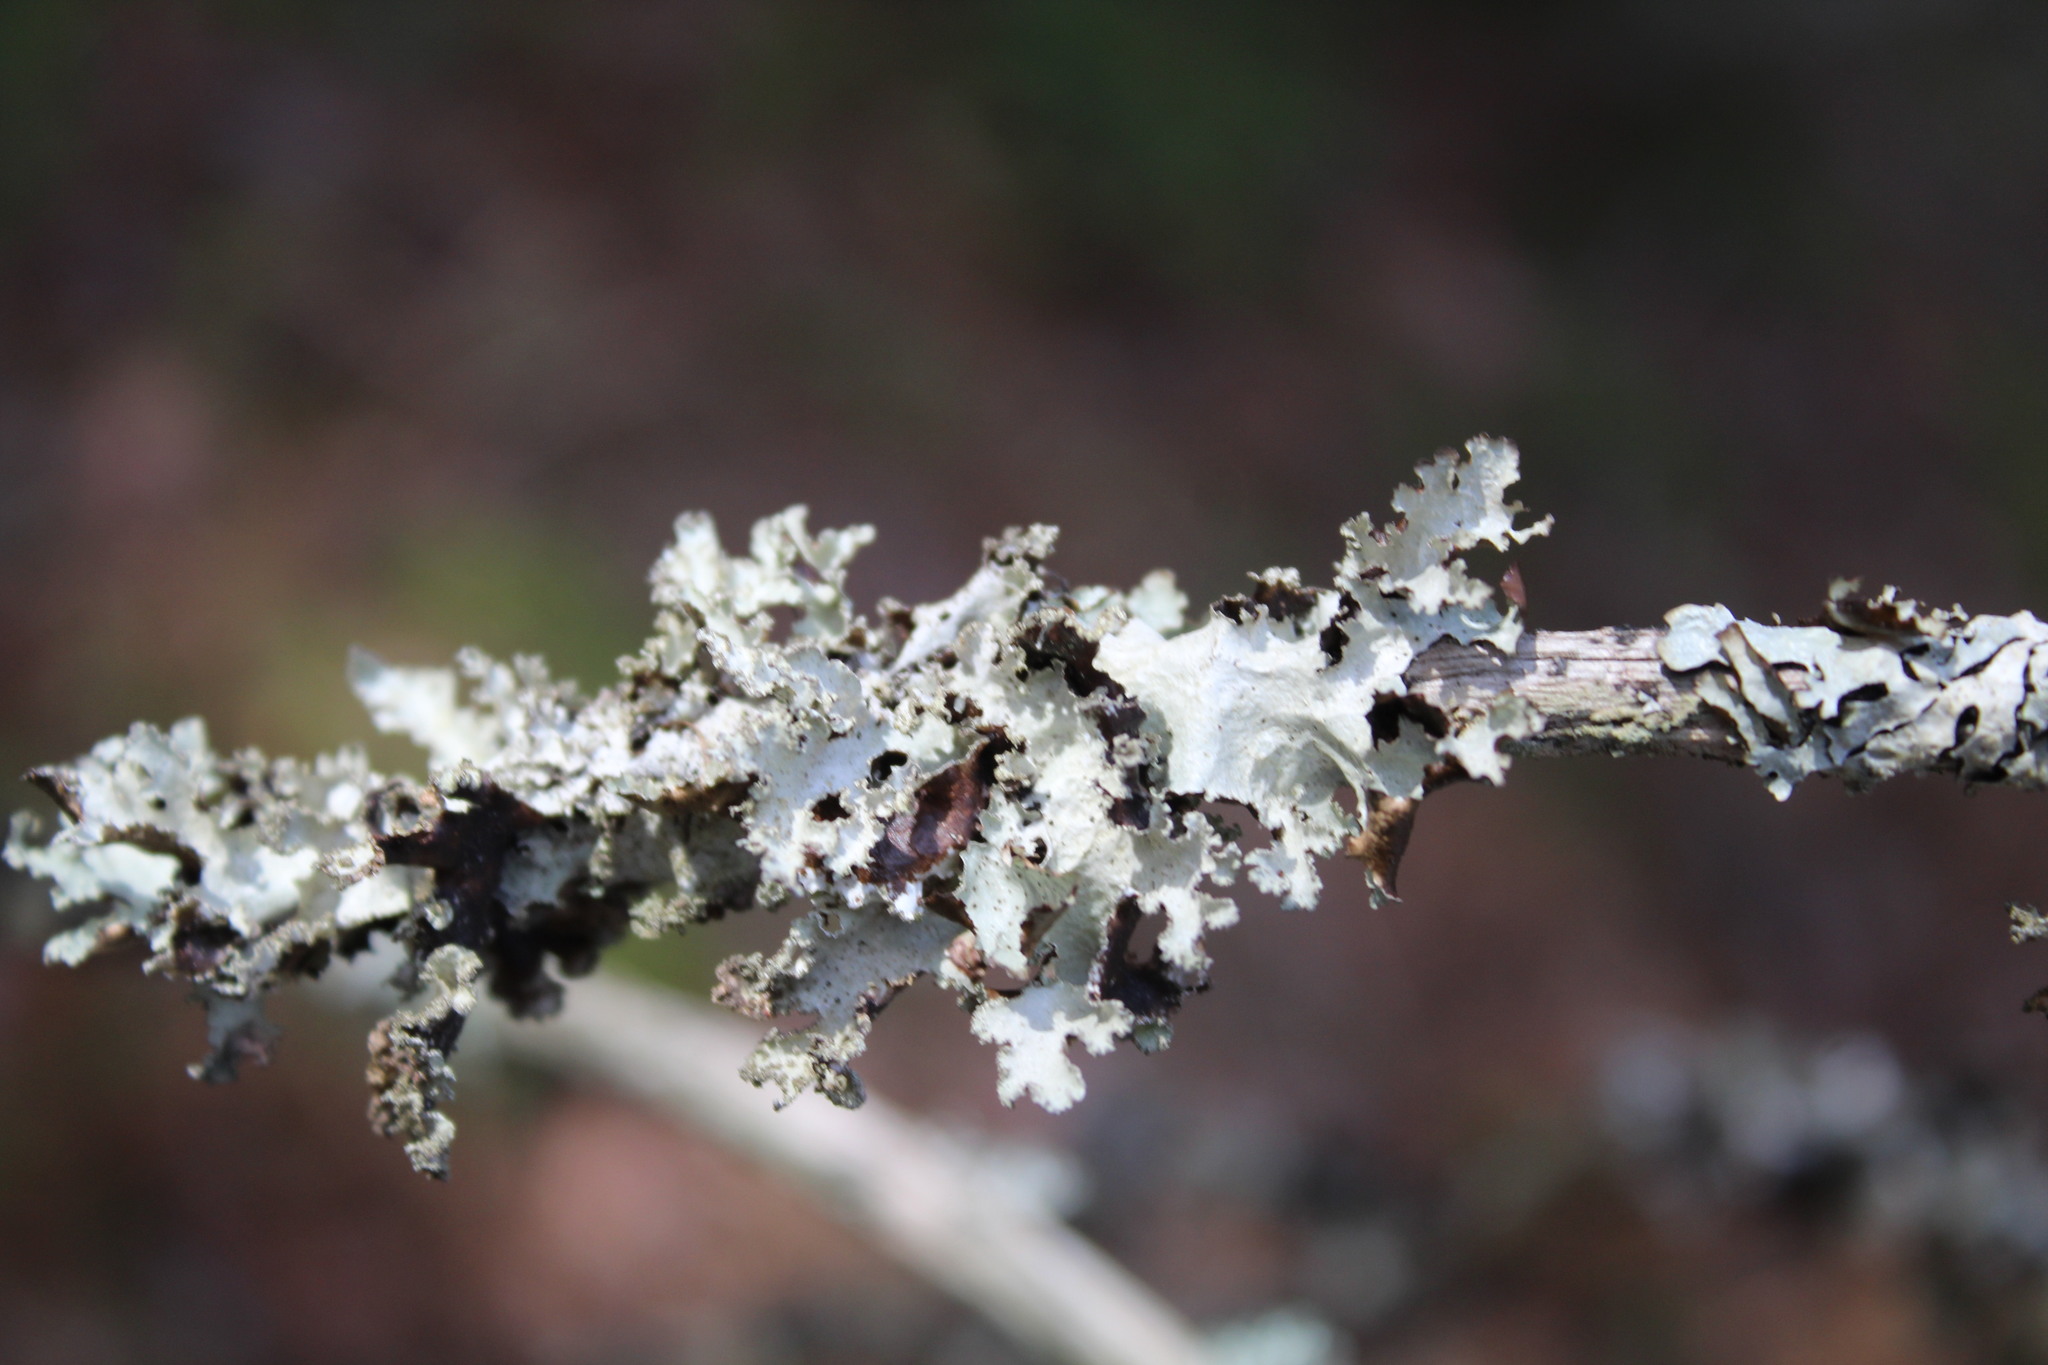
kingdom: Fungi
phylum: Ascomycota
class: Lecanoromycetes
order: Lecanorales
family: Parmeliaceae
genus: Platismatia
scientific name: Platismatia glauca
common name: Varied rag lichen
